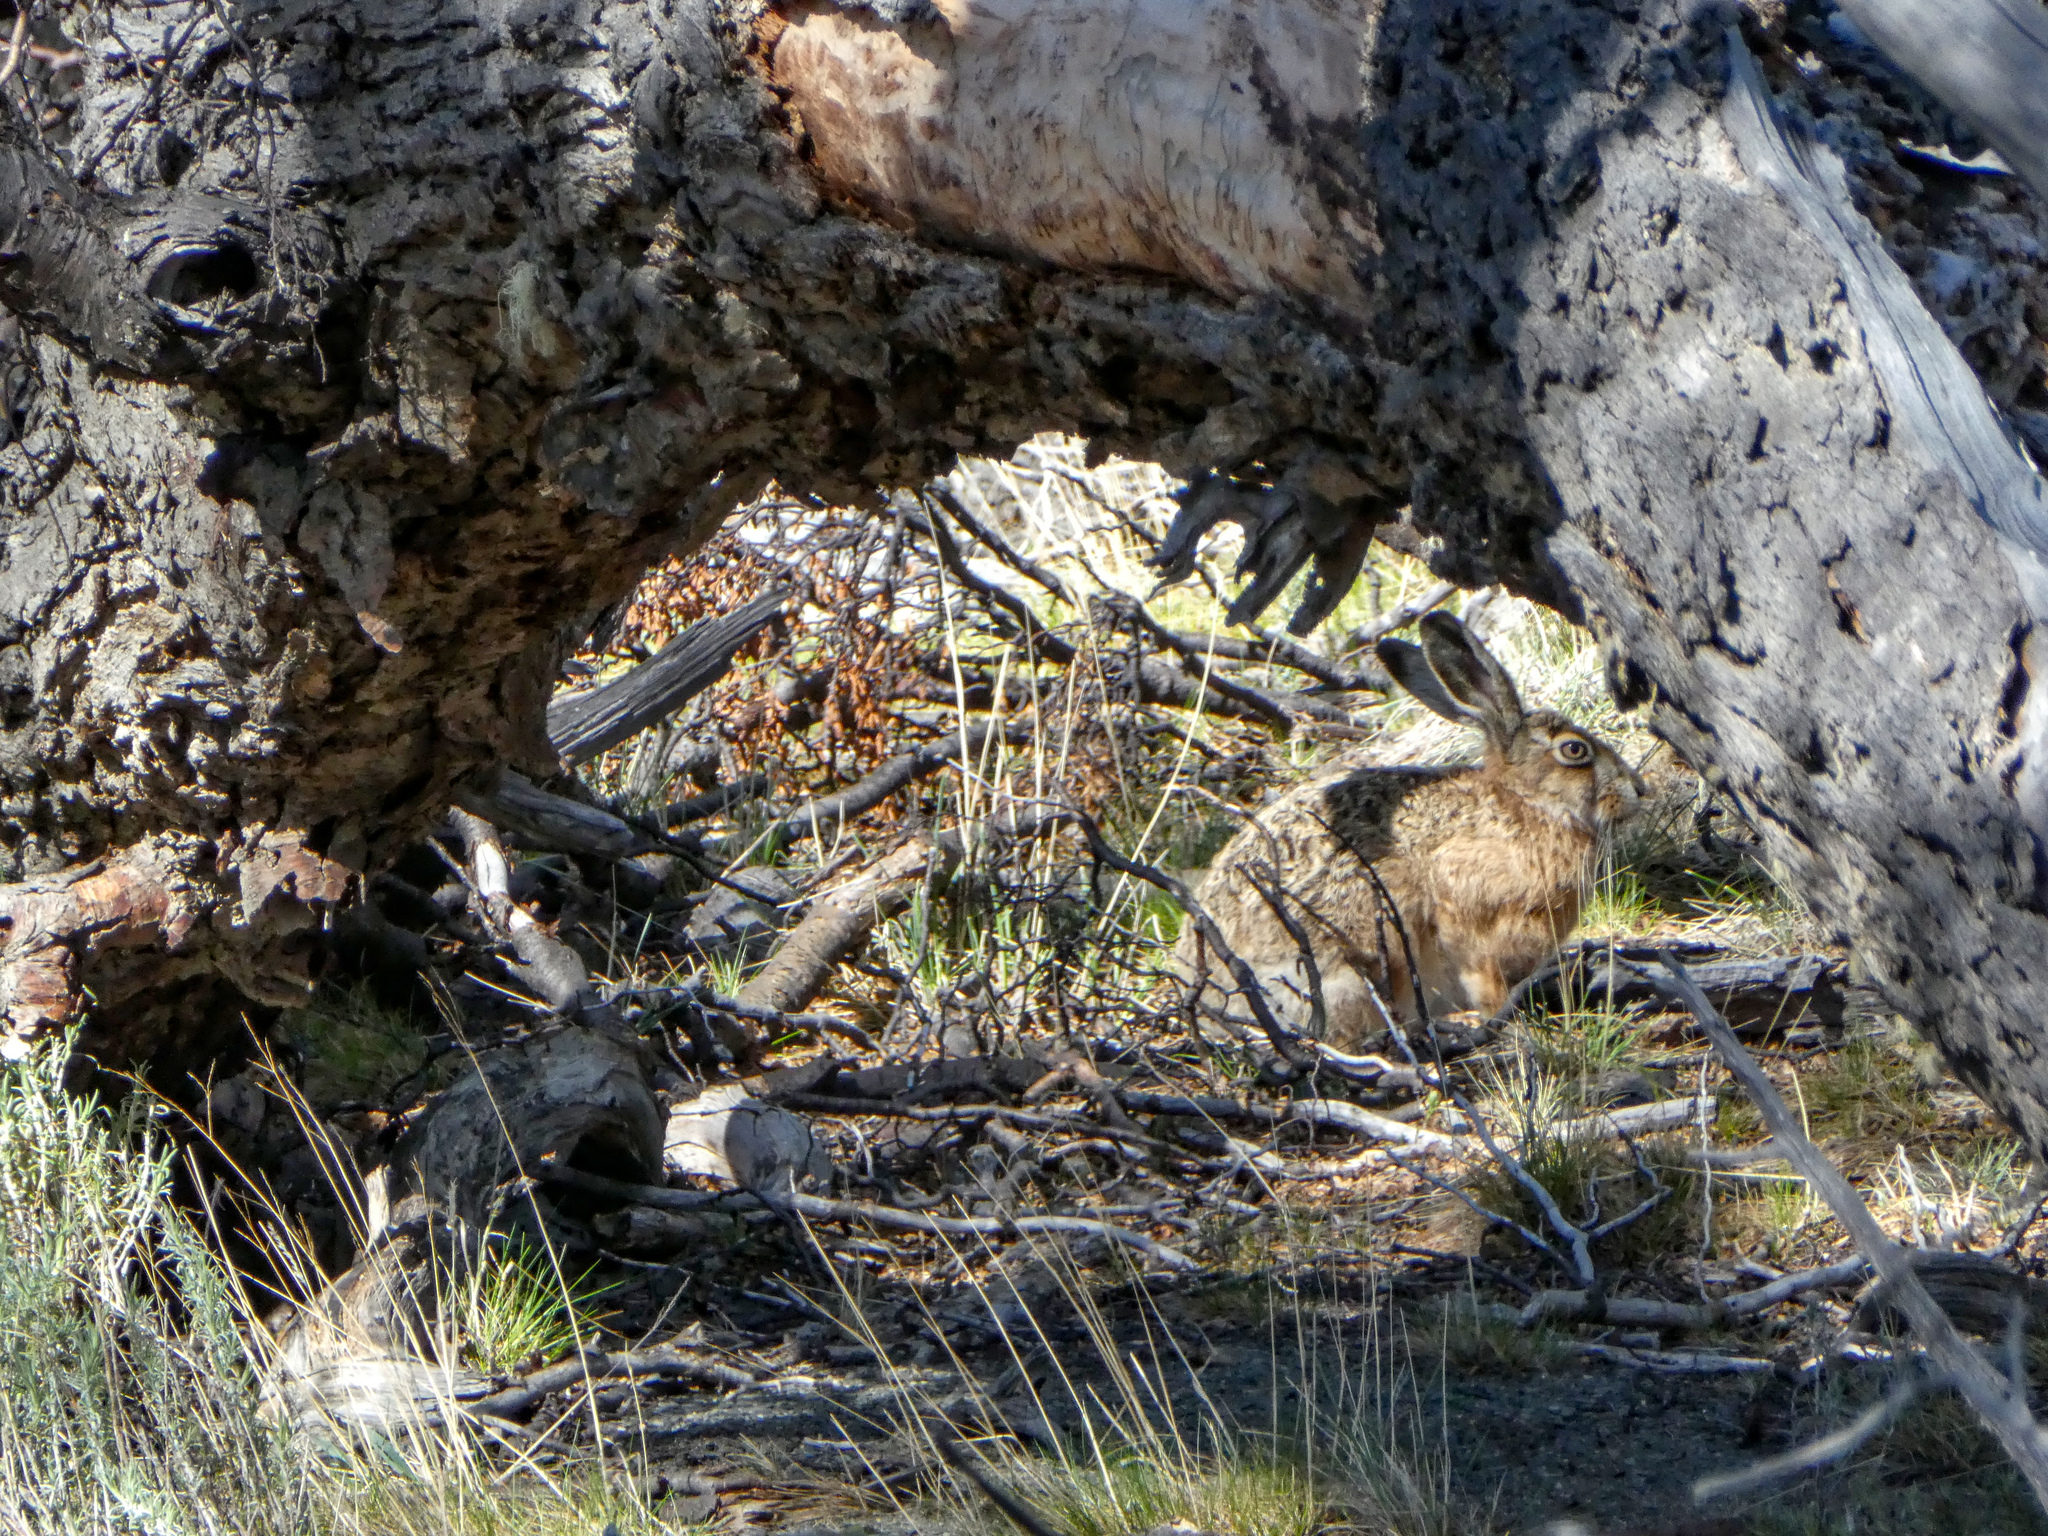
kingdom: Animalia
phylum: Chordata
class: Mammalia
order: Lagomorpha
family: Leporidae
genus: Lepus
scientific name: Lepus europaeus
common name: European hare
